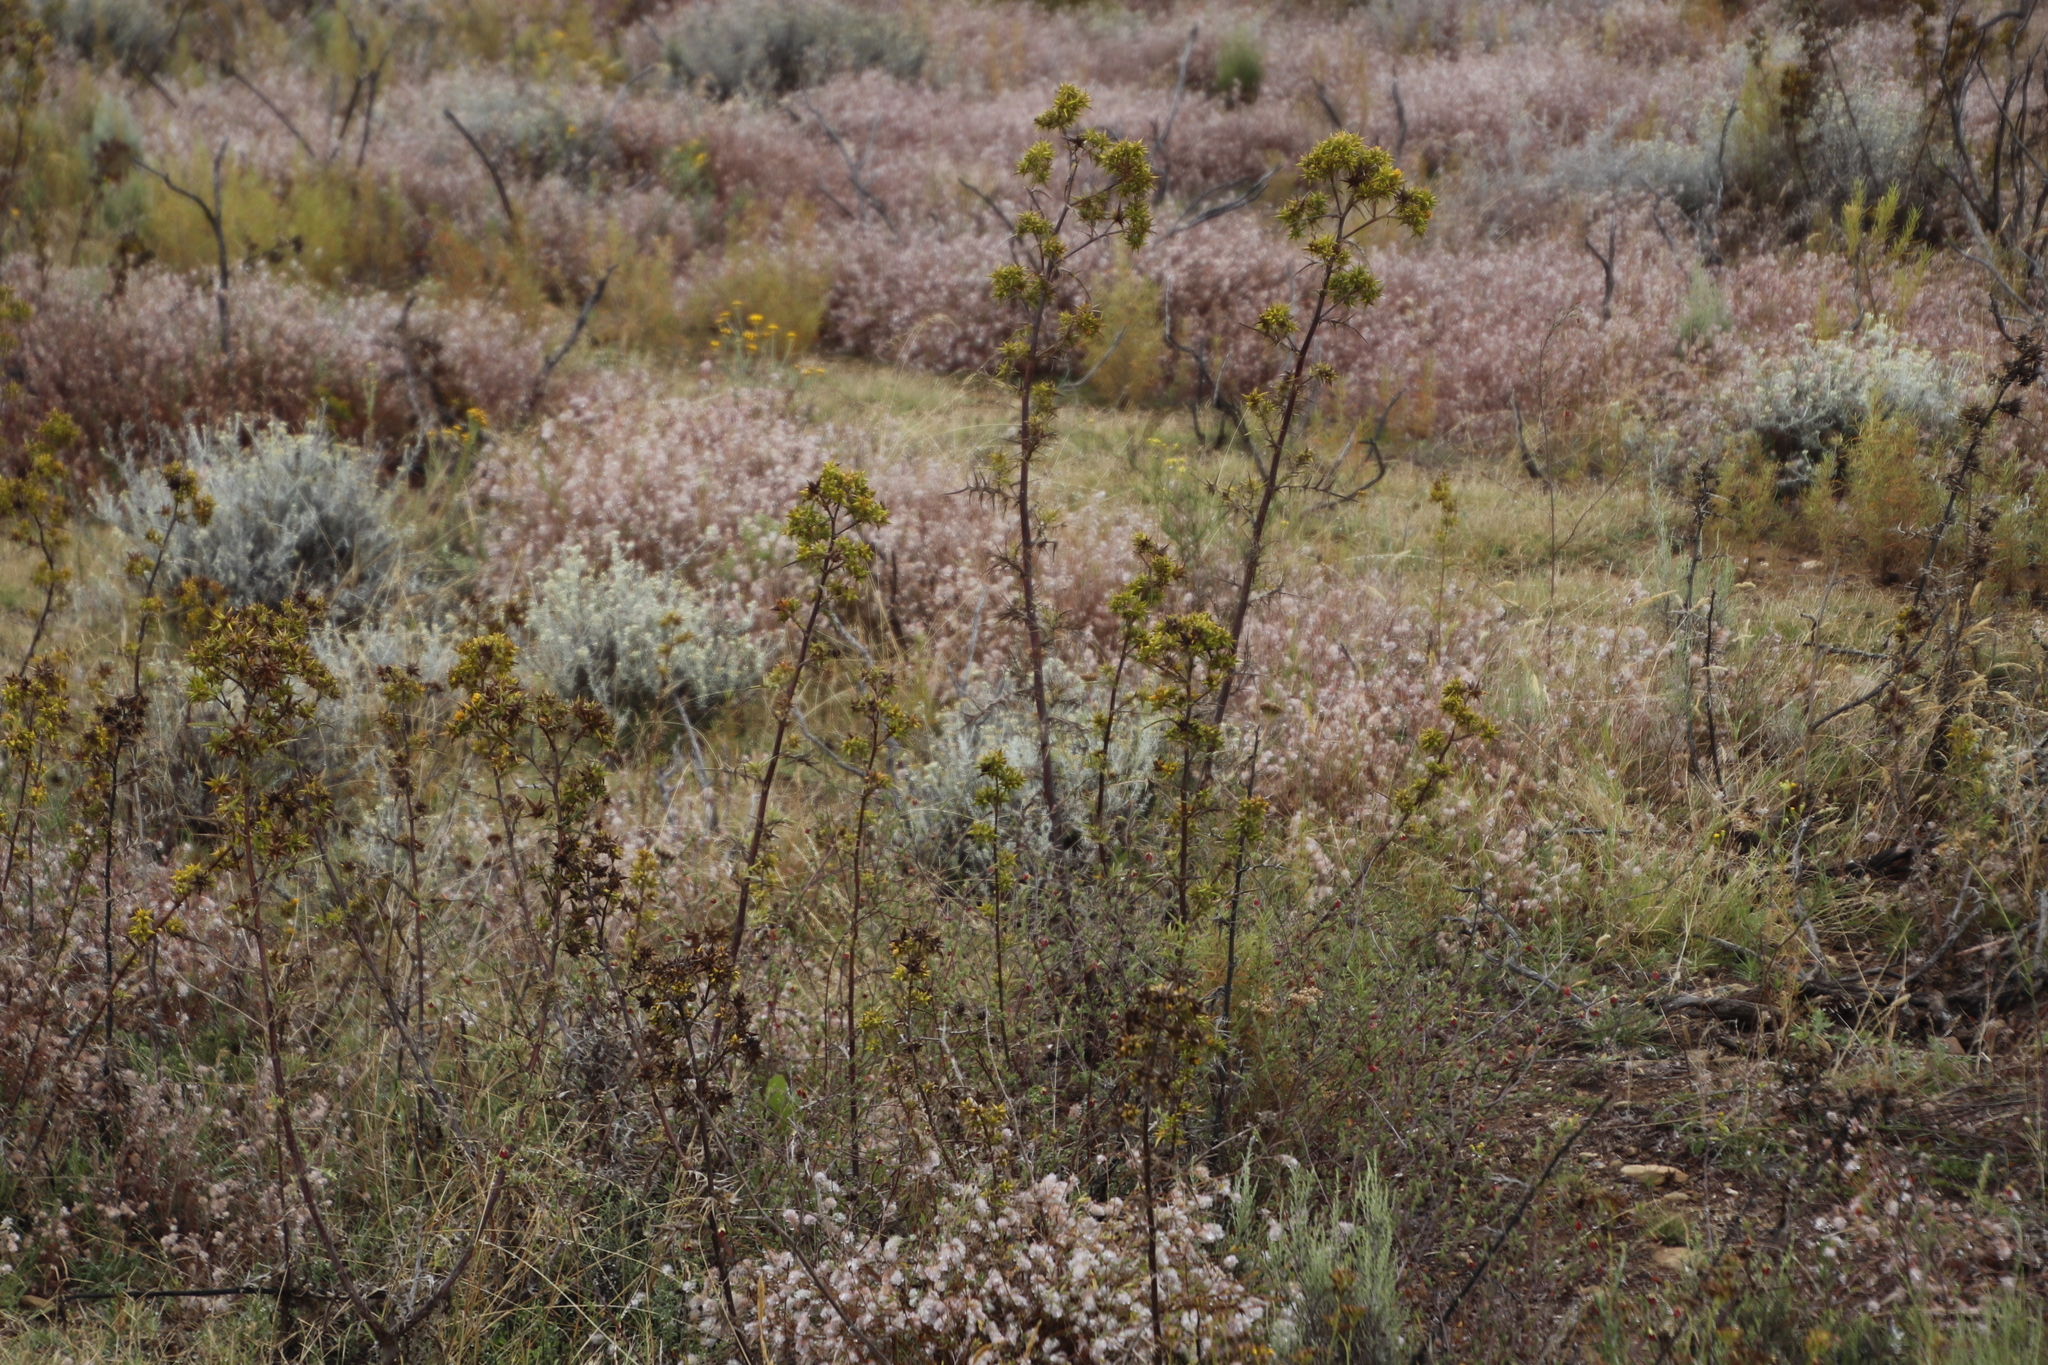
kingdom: Plantae
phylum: Tracheophyta
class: Magnoliopsida
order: Asterales
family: Asteraceae
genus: Berkheya
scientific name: Berkheya rigida
